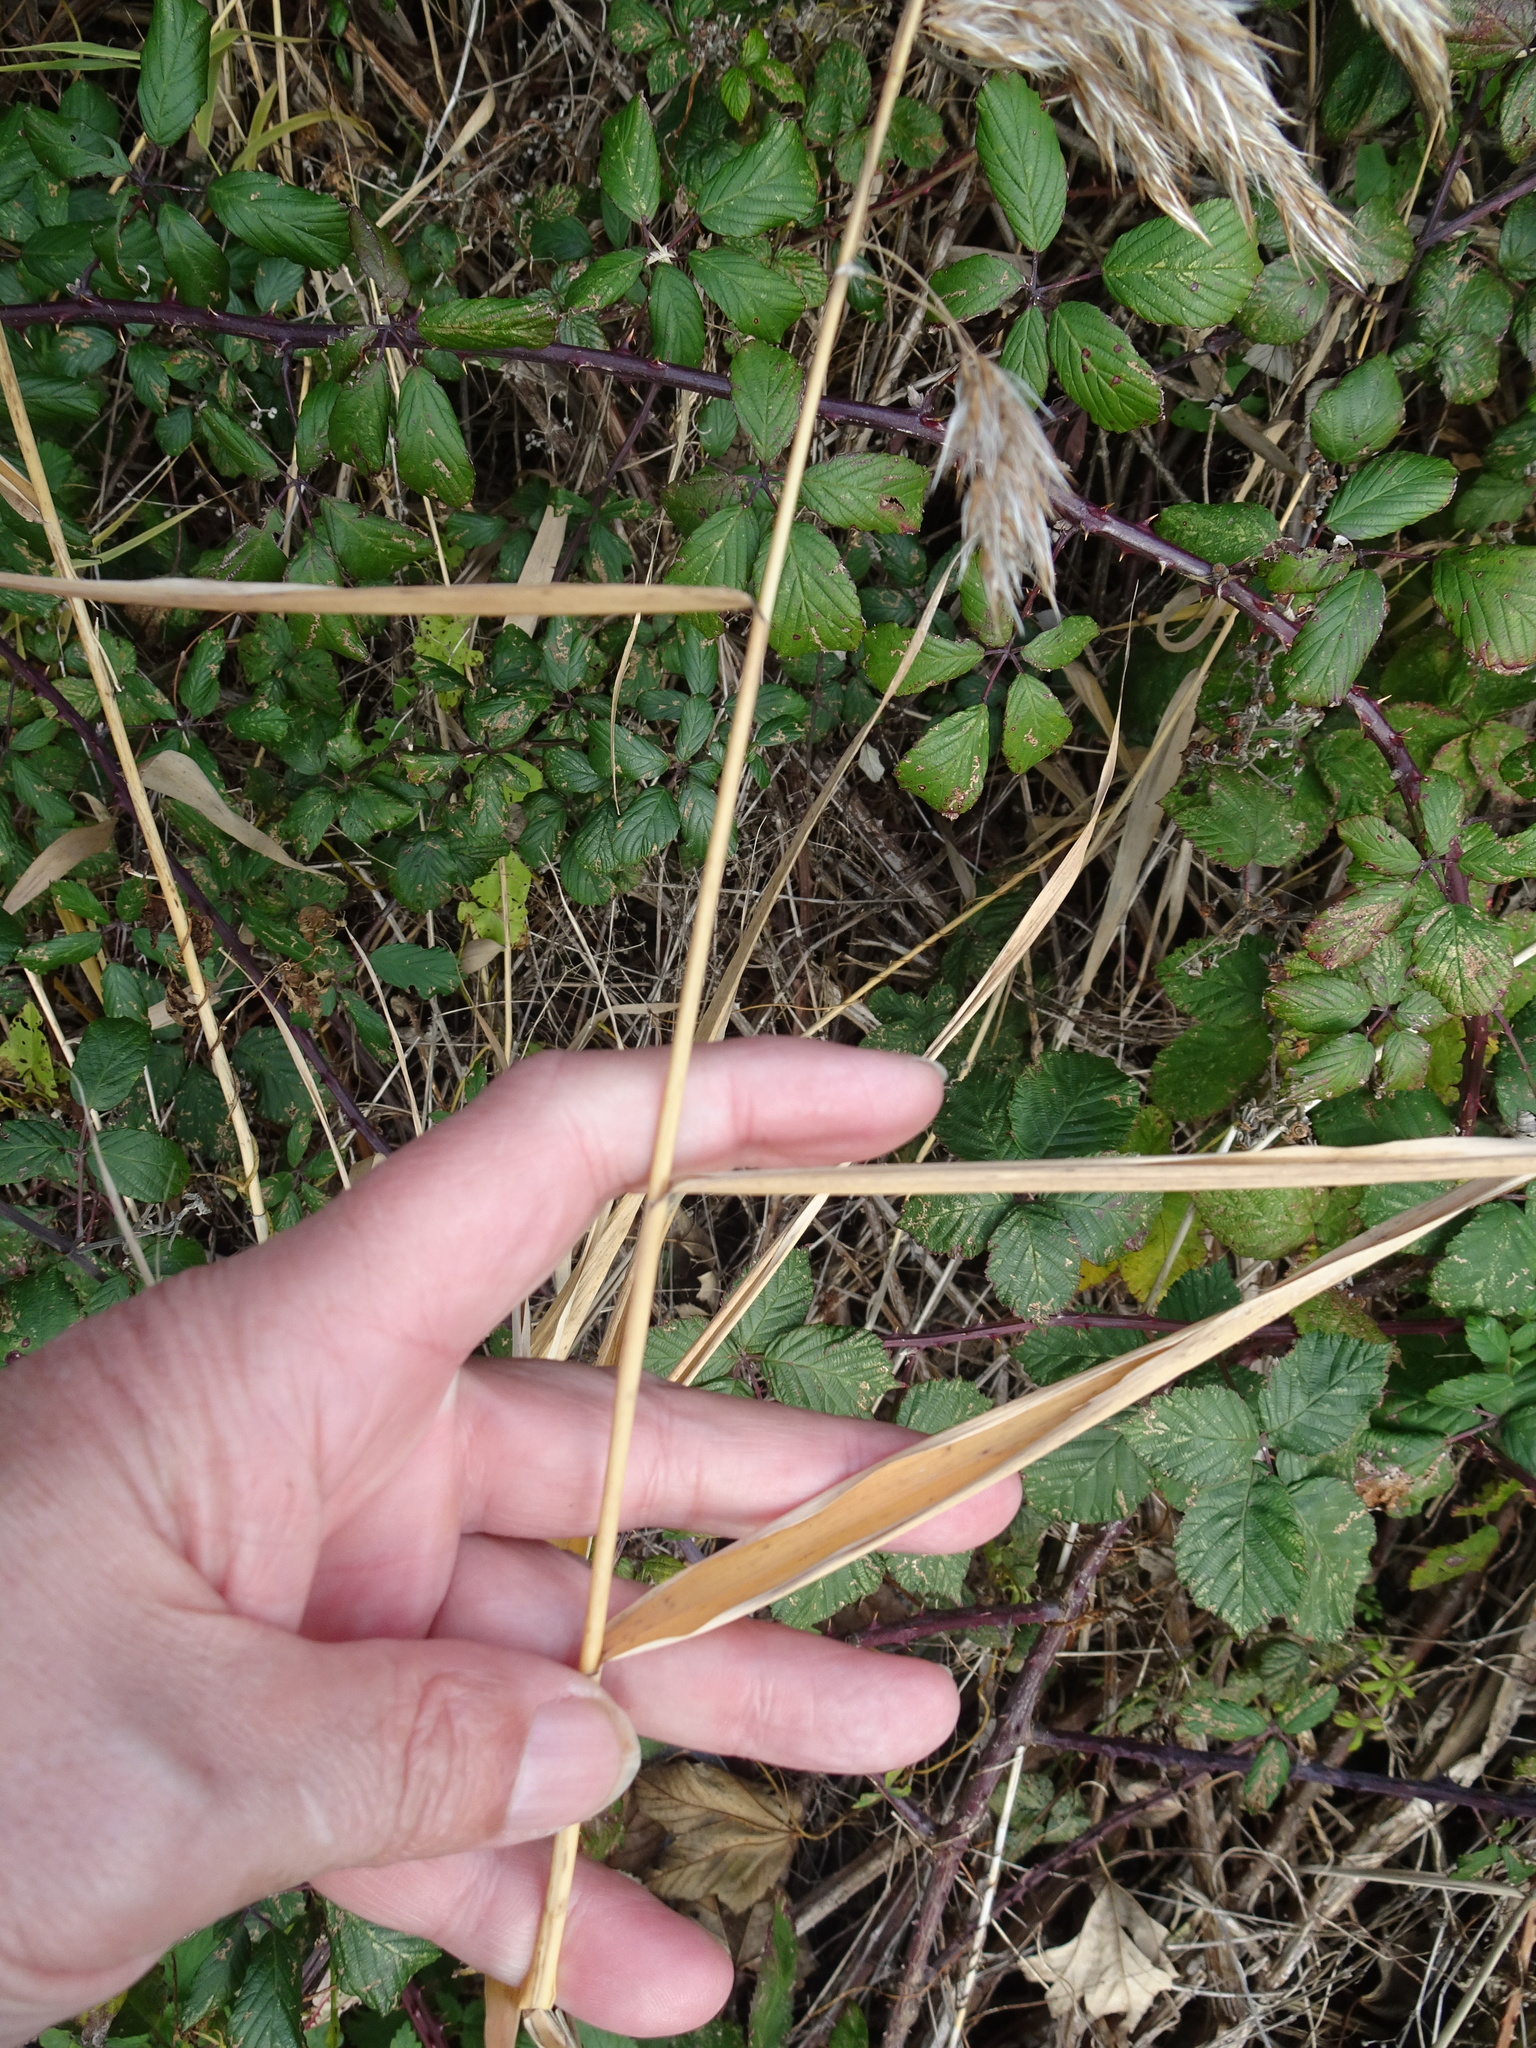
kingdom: Plantae
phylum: Tracheophyta
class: Liliopsida
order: Poales
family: Poaceae
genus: Phragmites
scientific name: Phragmites australis
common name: Common reed
